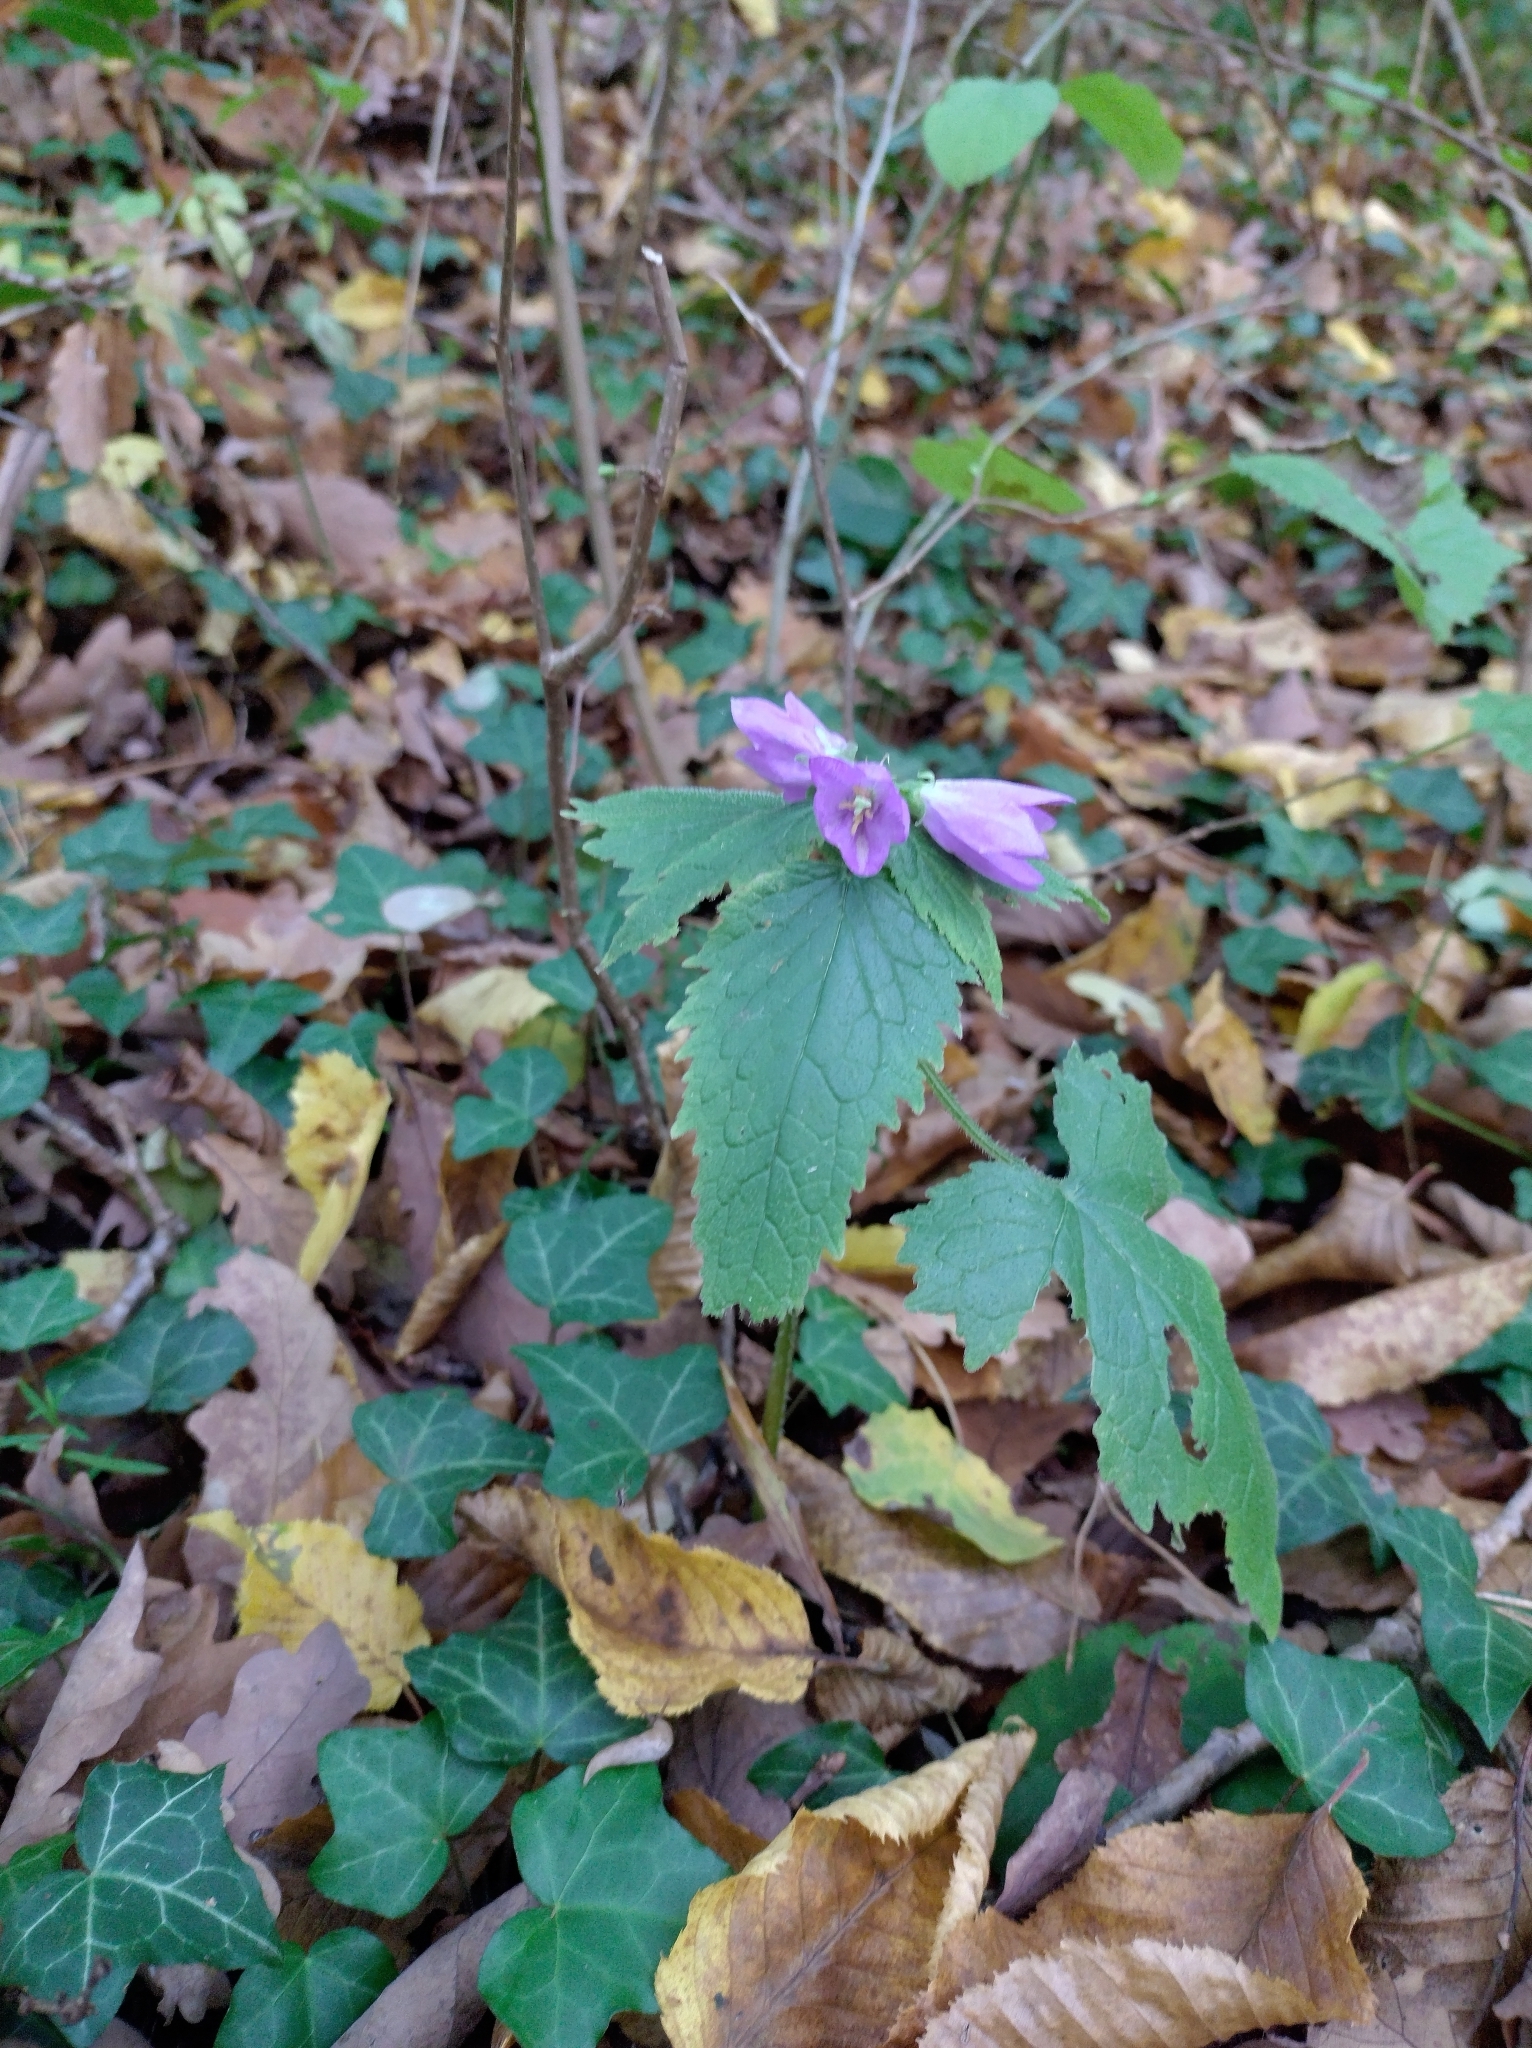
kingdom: Plantae
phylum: Tracheophyta
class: Magnoliopsida
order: Asterales
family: Campanulaceae
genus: Campanula
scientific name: Campanula trachelium
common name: Nettle-leaved bellflower
